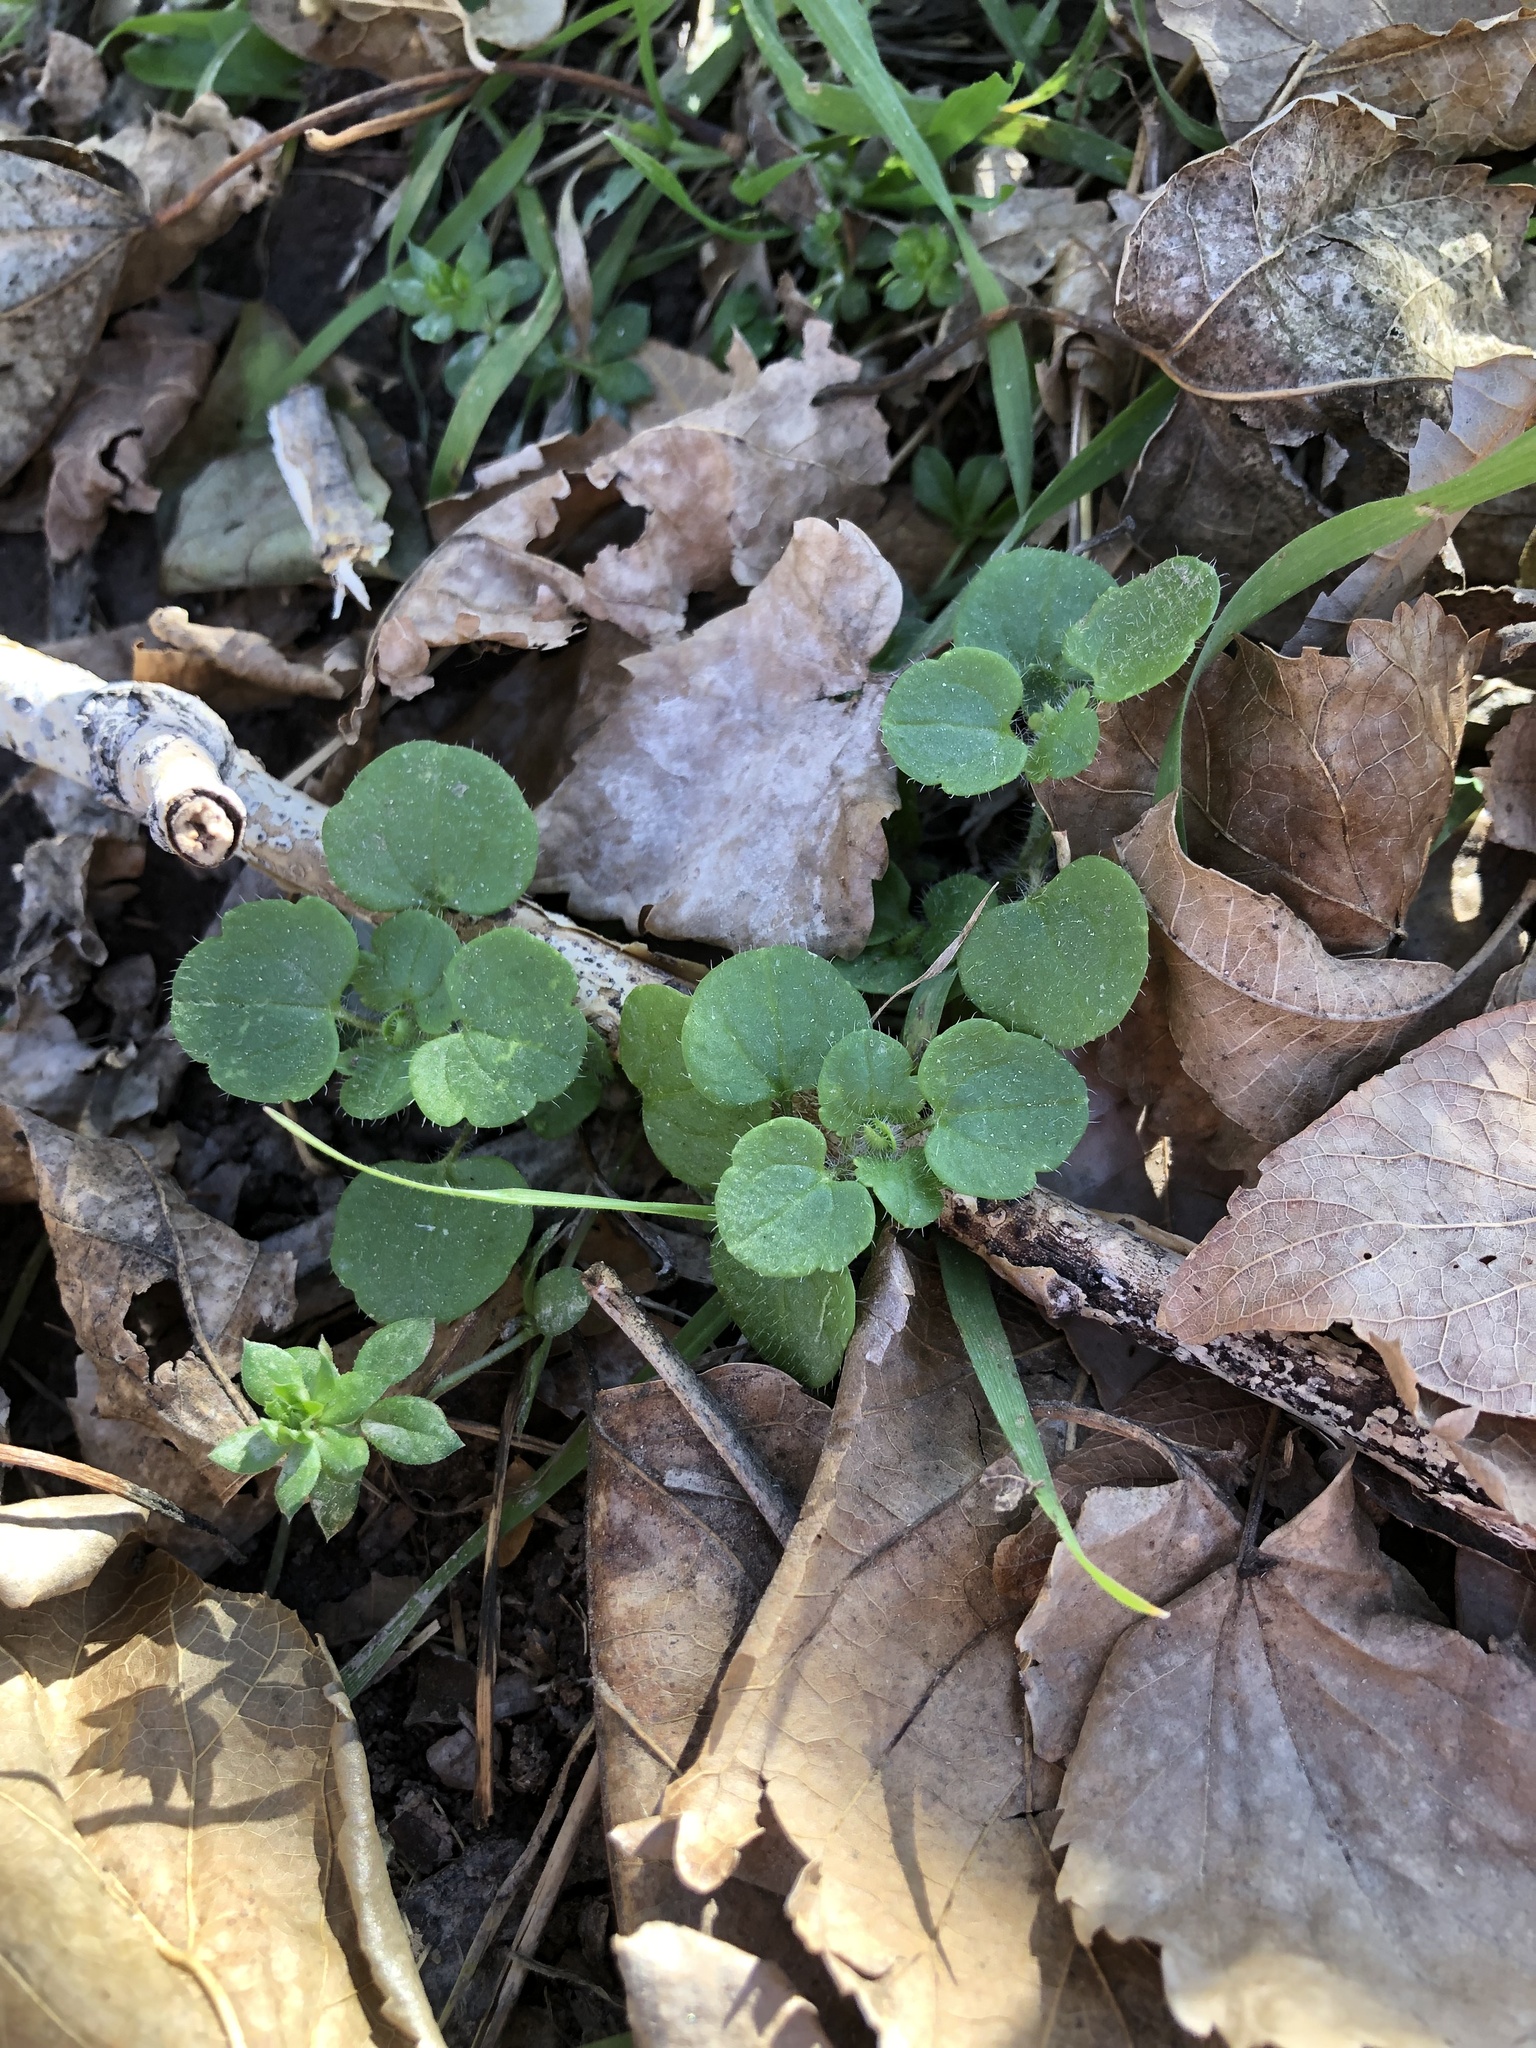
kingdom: Plantae
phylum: Tracheophyta
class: Magnoliopsida
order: Lamiales
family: Plantaginaceae
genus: Veronica
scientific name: Veronica hederifolia
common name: Ivy-leaved speedwell
